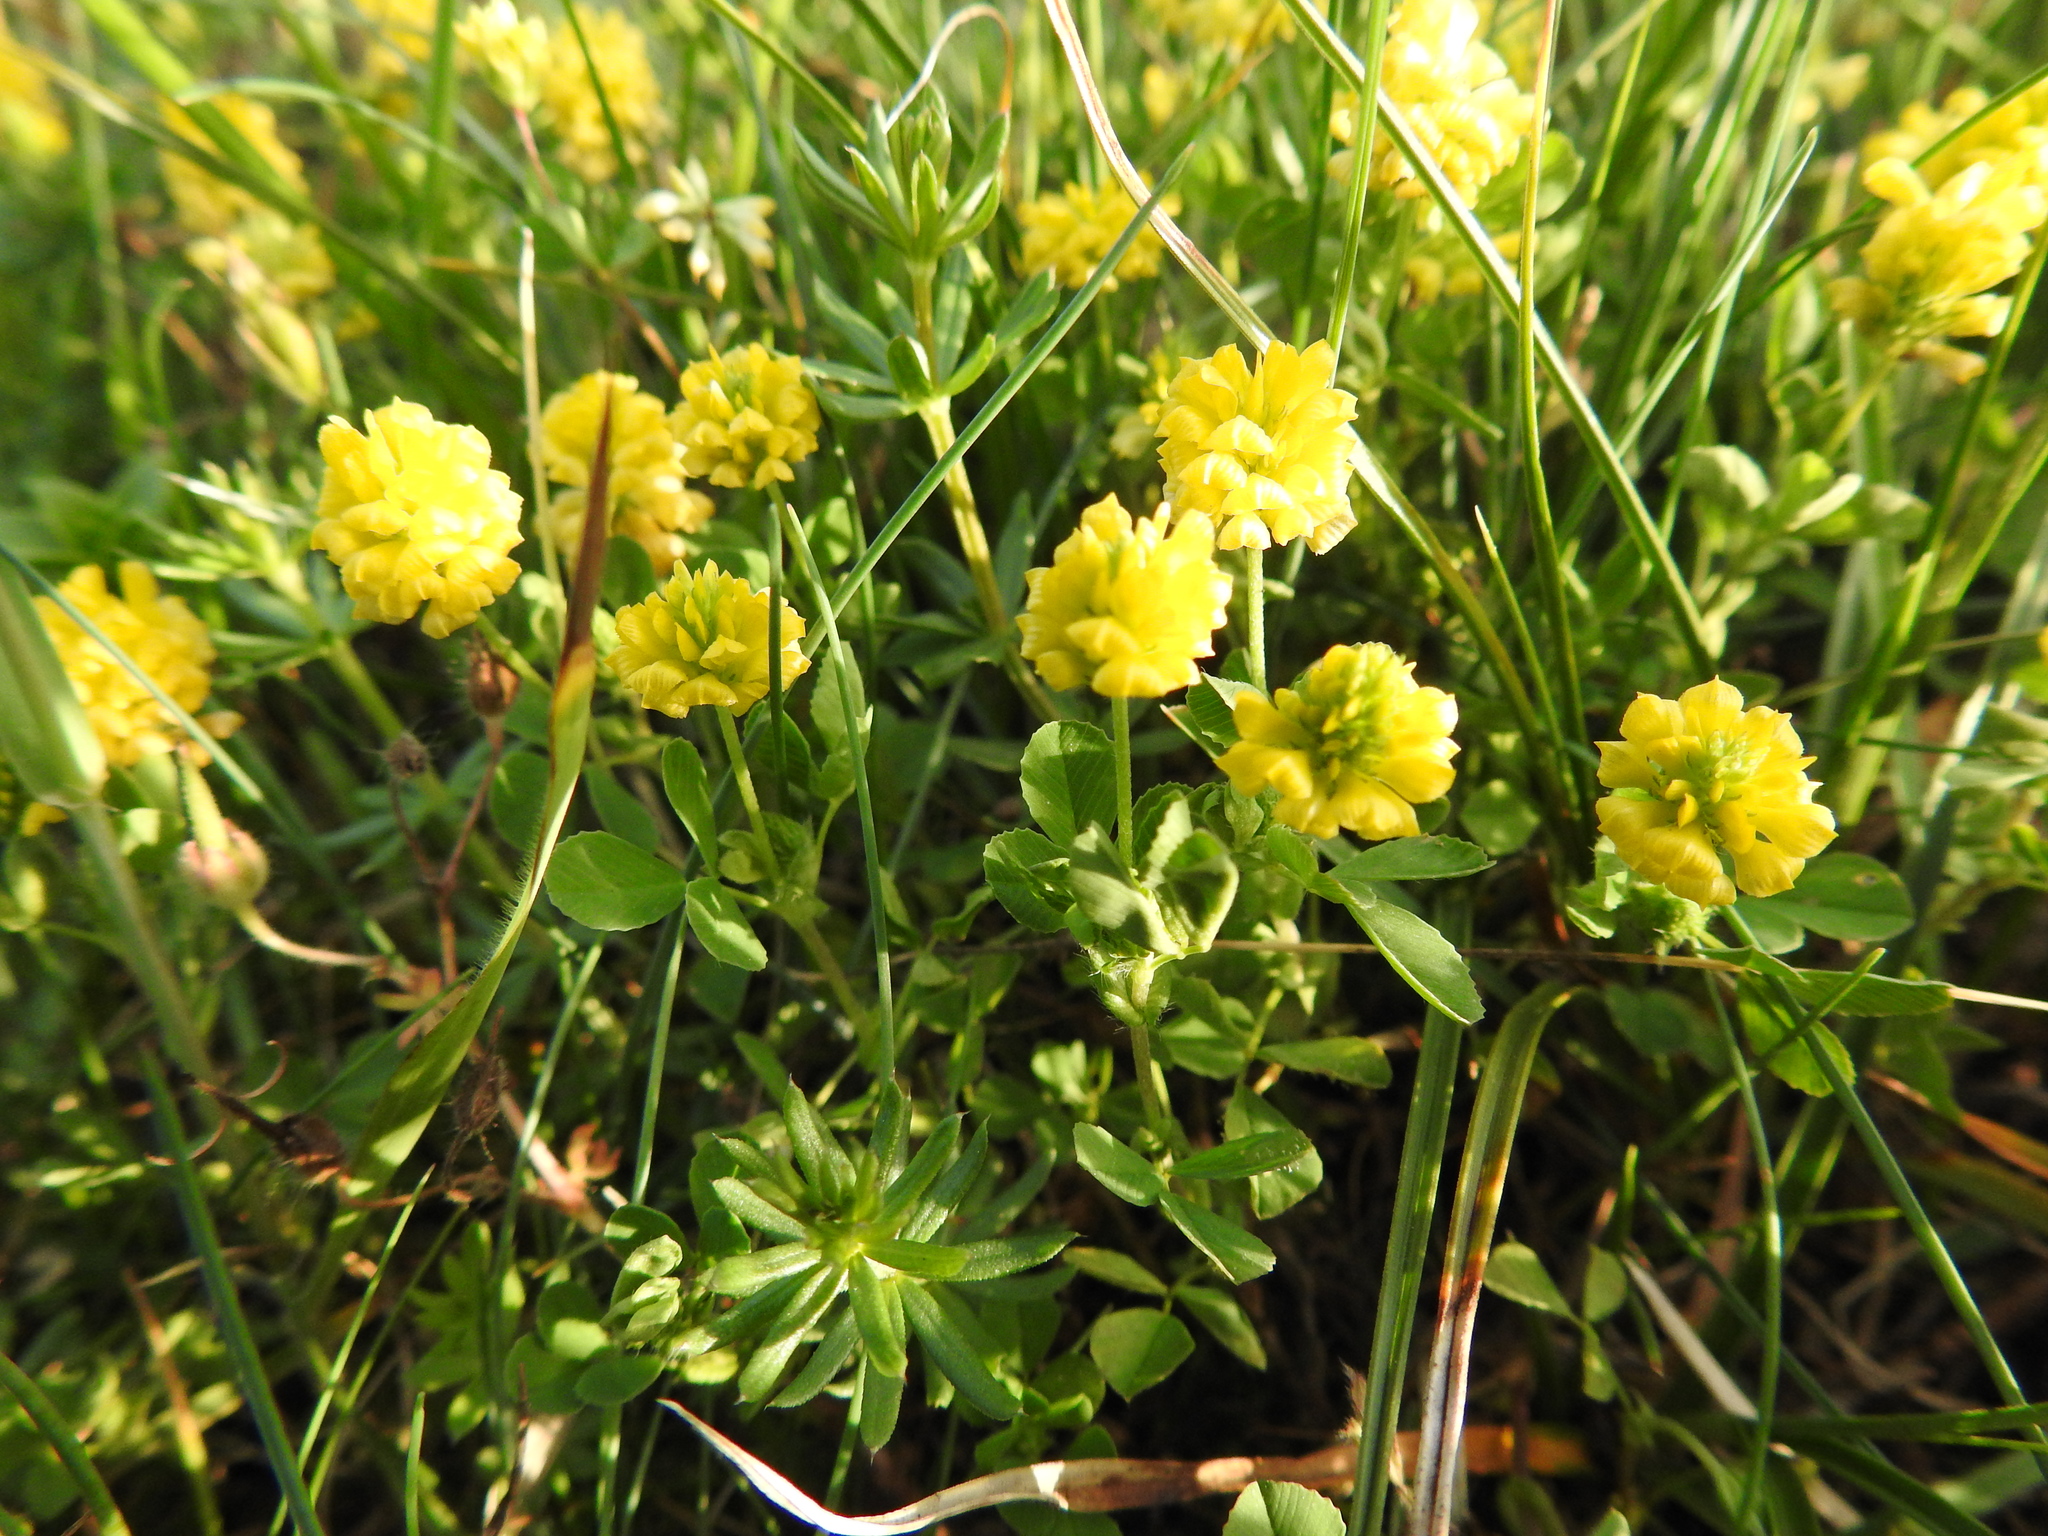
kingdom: Plantae
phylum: Tracheophyta
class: Magnoliopsida
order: Fabales
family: Fabaceae
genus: Trifolium
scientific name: Trifolium campestre
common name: Field clover
